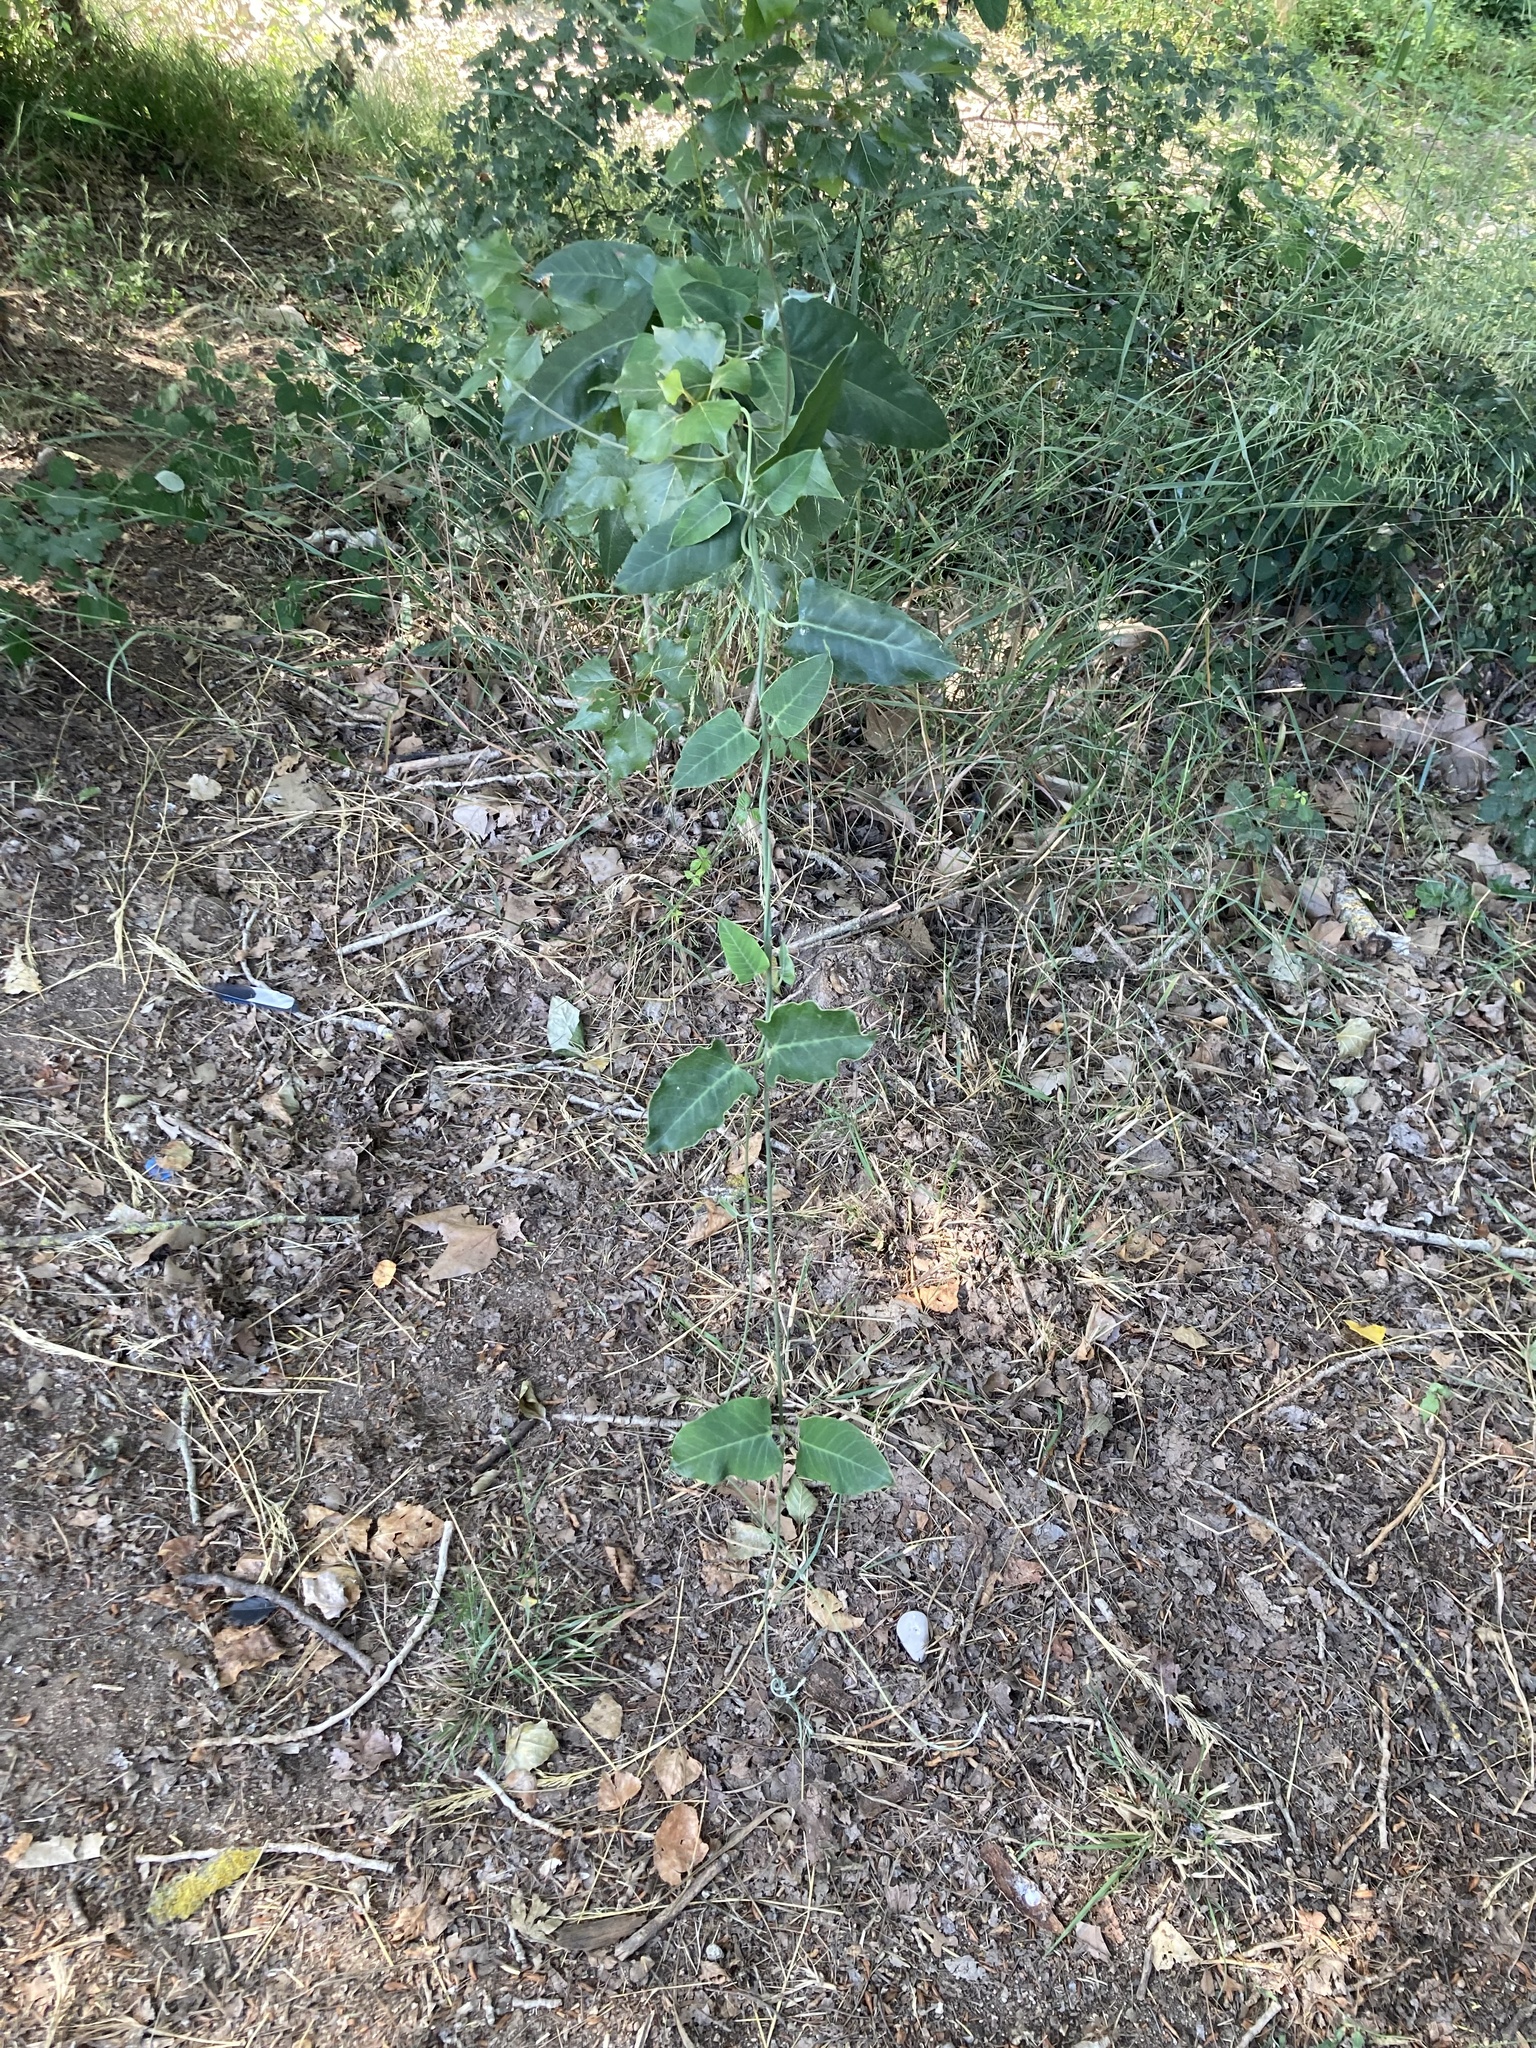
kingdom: Plantae
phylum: Tracheophyta
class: Magnoliopsida
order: Gentianales
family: Apocynaceae
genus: Araujia
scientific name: Araujia sericifera
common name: White bladderflower
